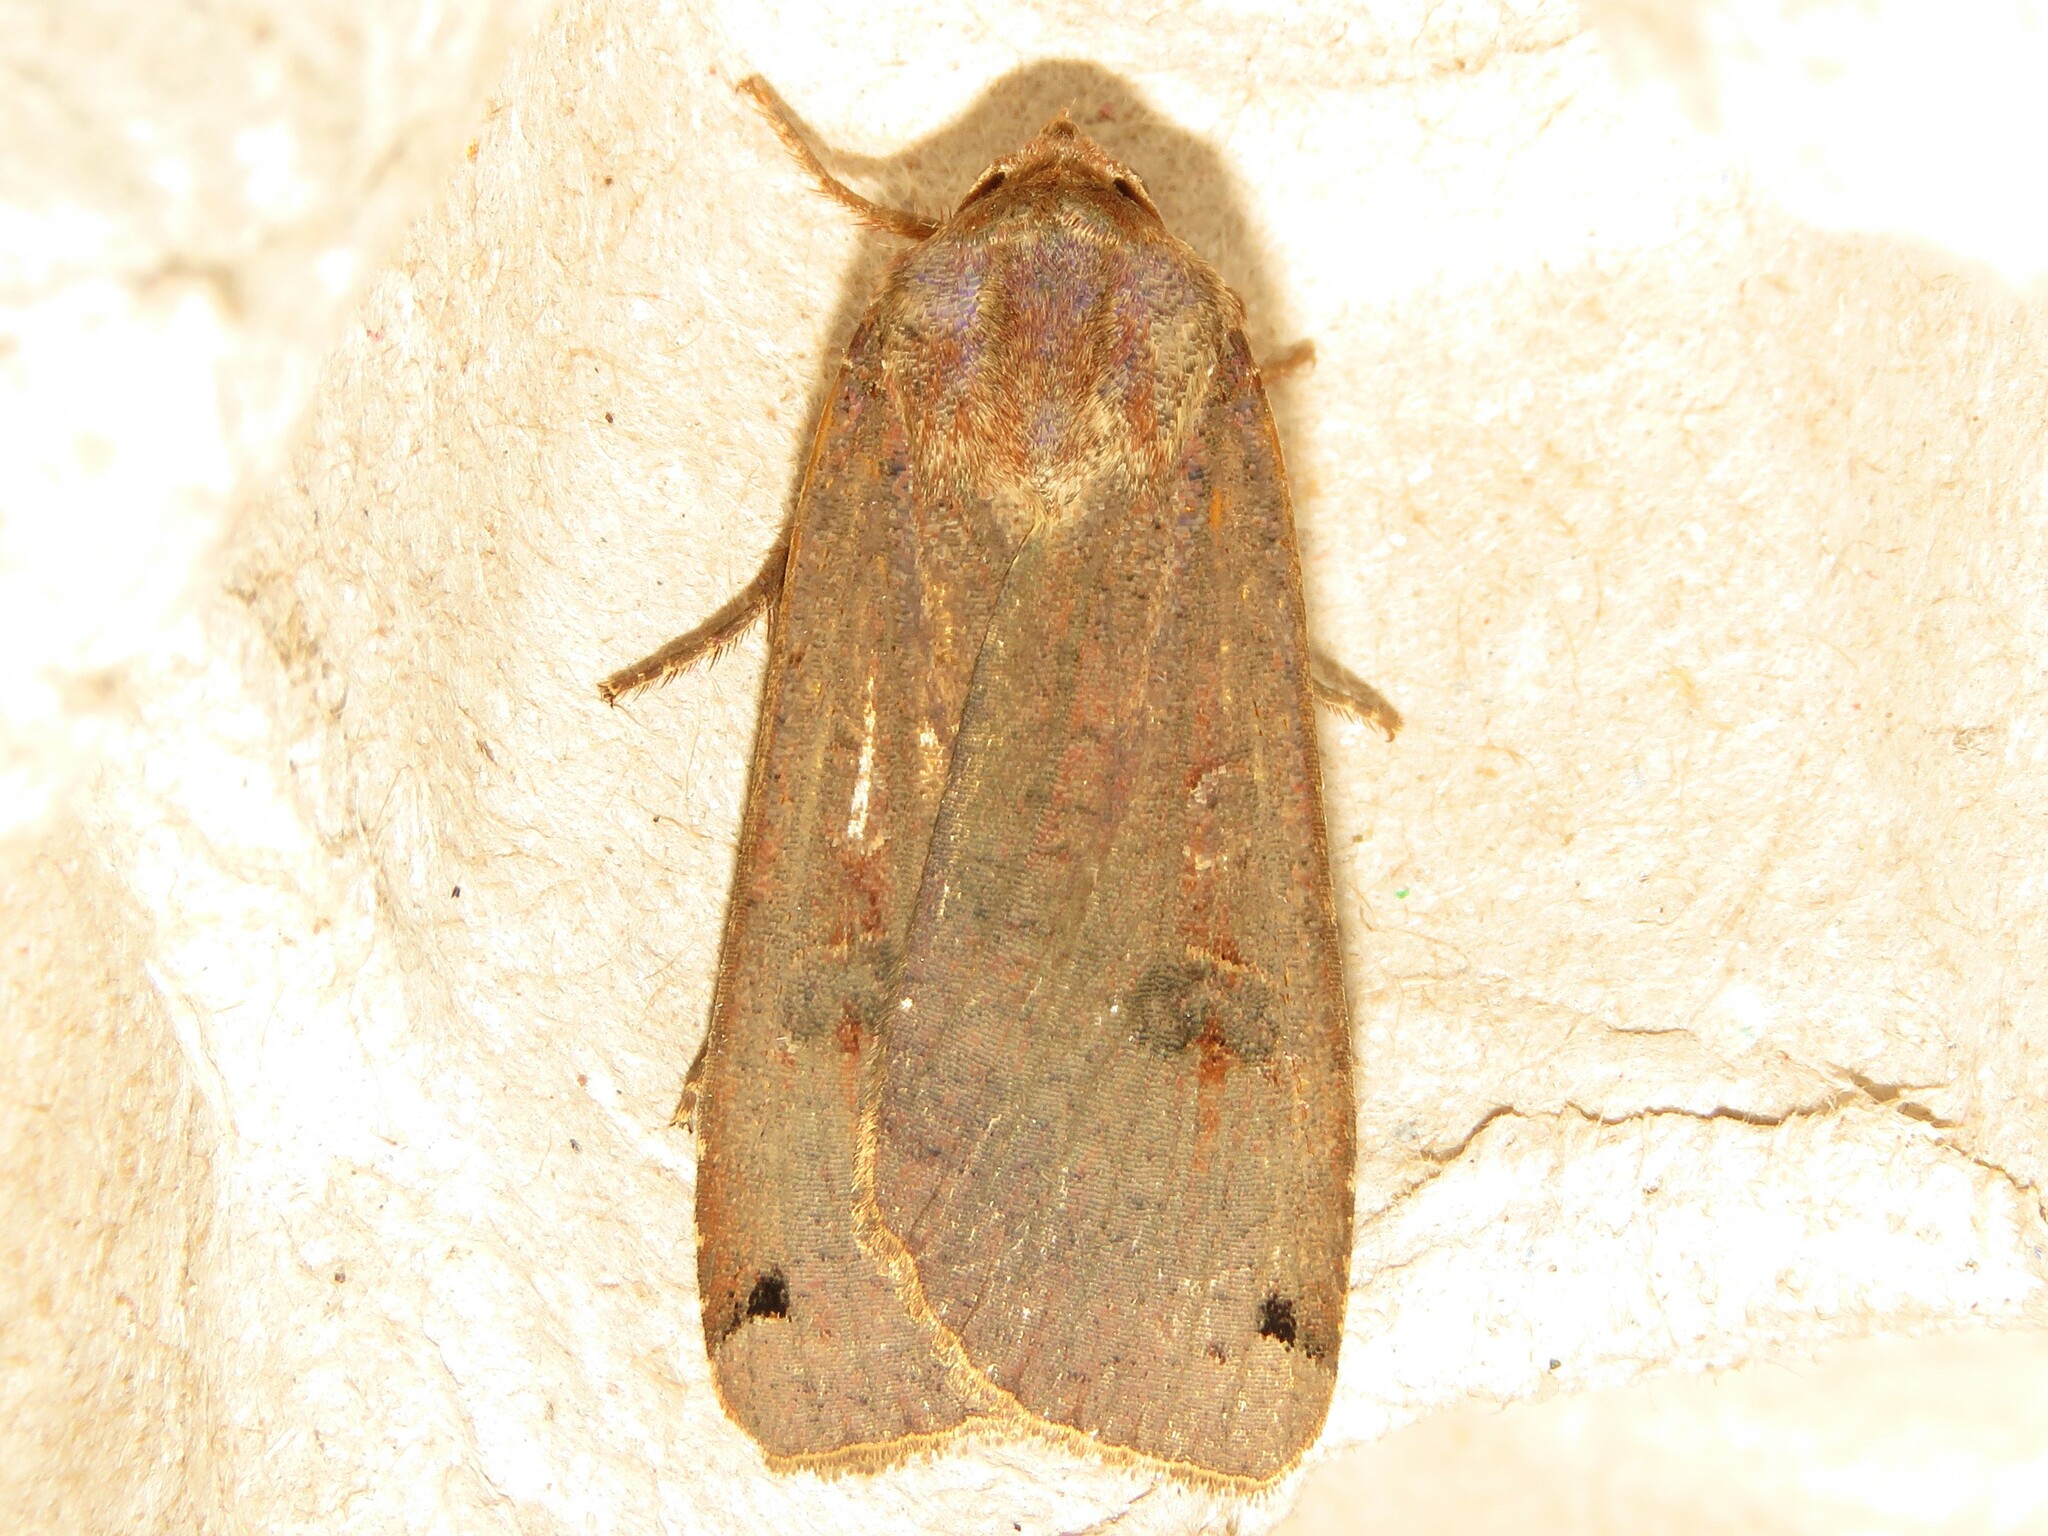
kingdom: Animalia
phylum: Arthropoda
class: Insecta
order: Lepidoptera
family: Noctuidae
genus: Noctua
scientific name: Noctua pronuba
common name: Large yellow underwing
